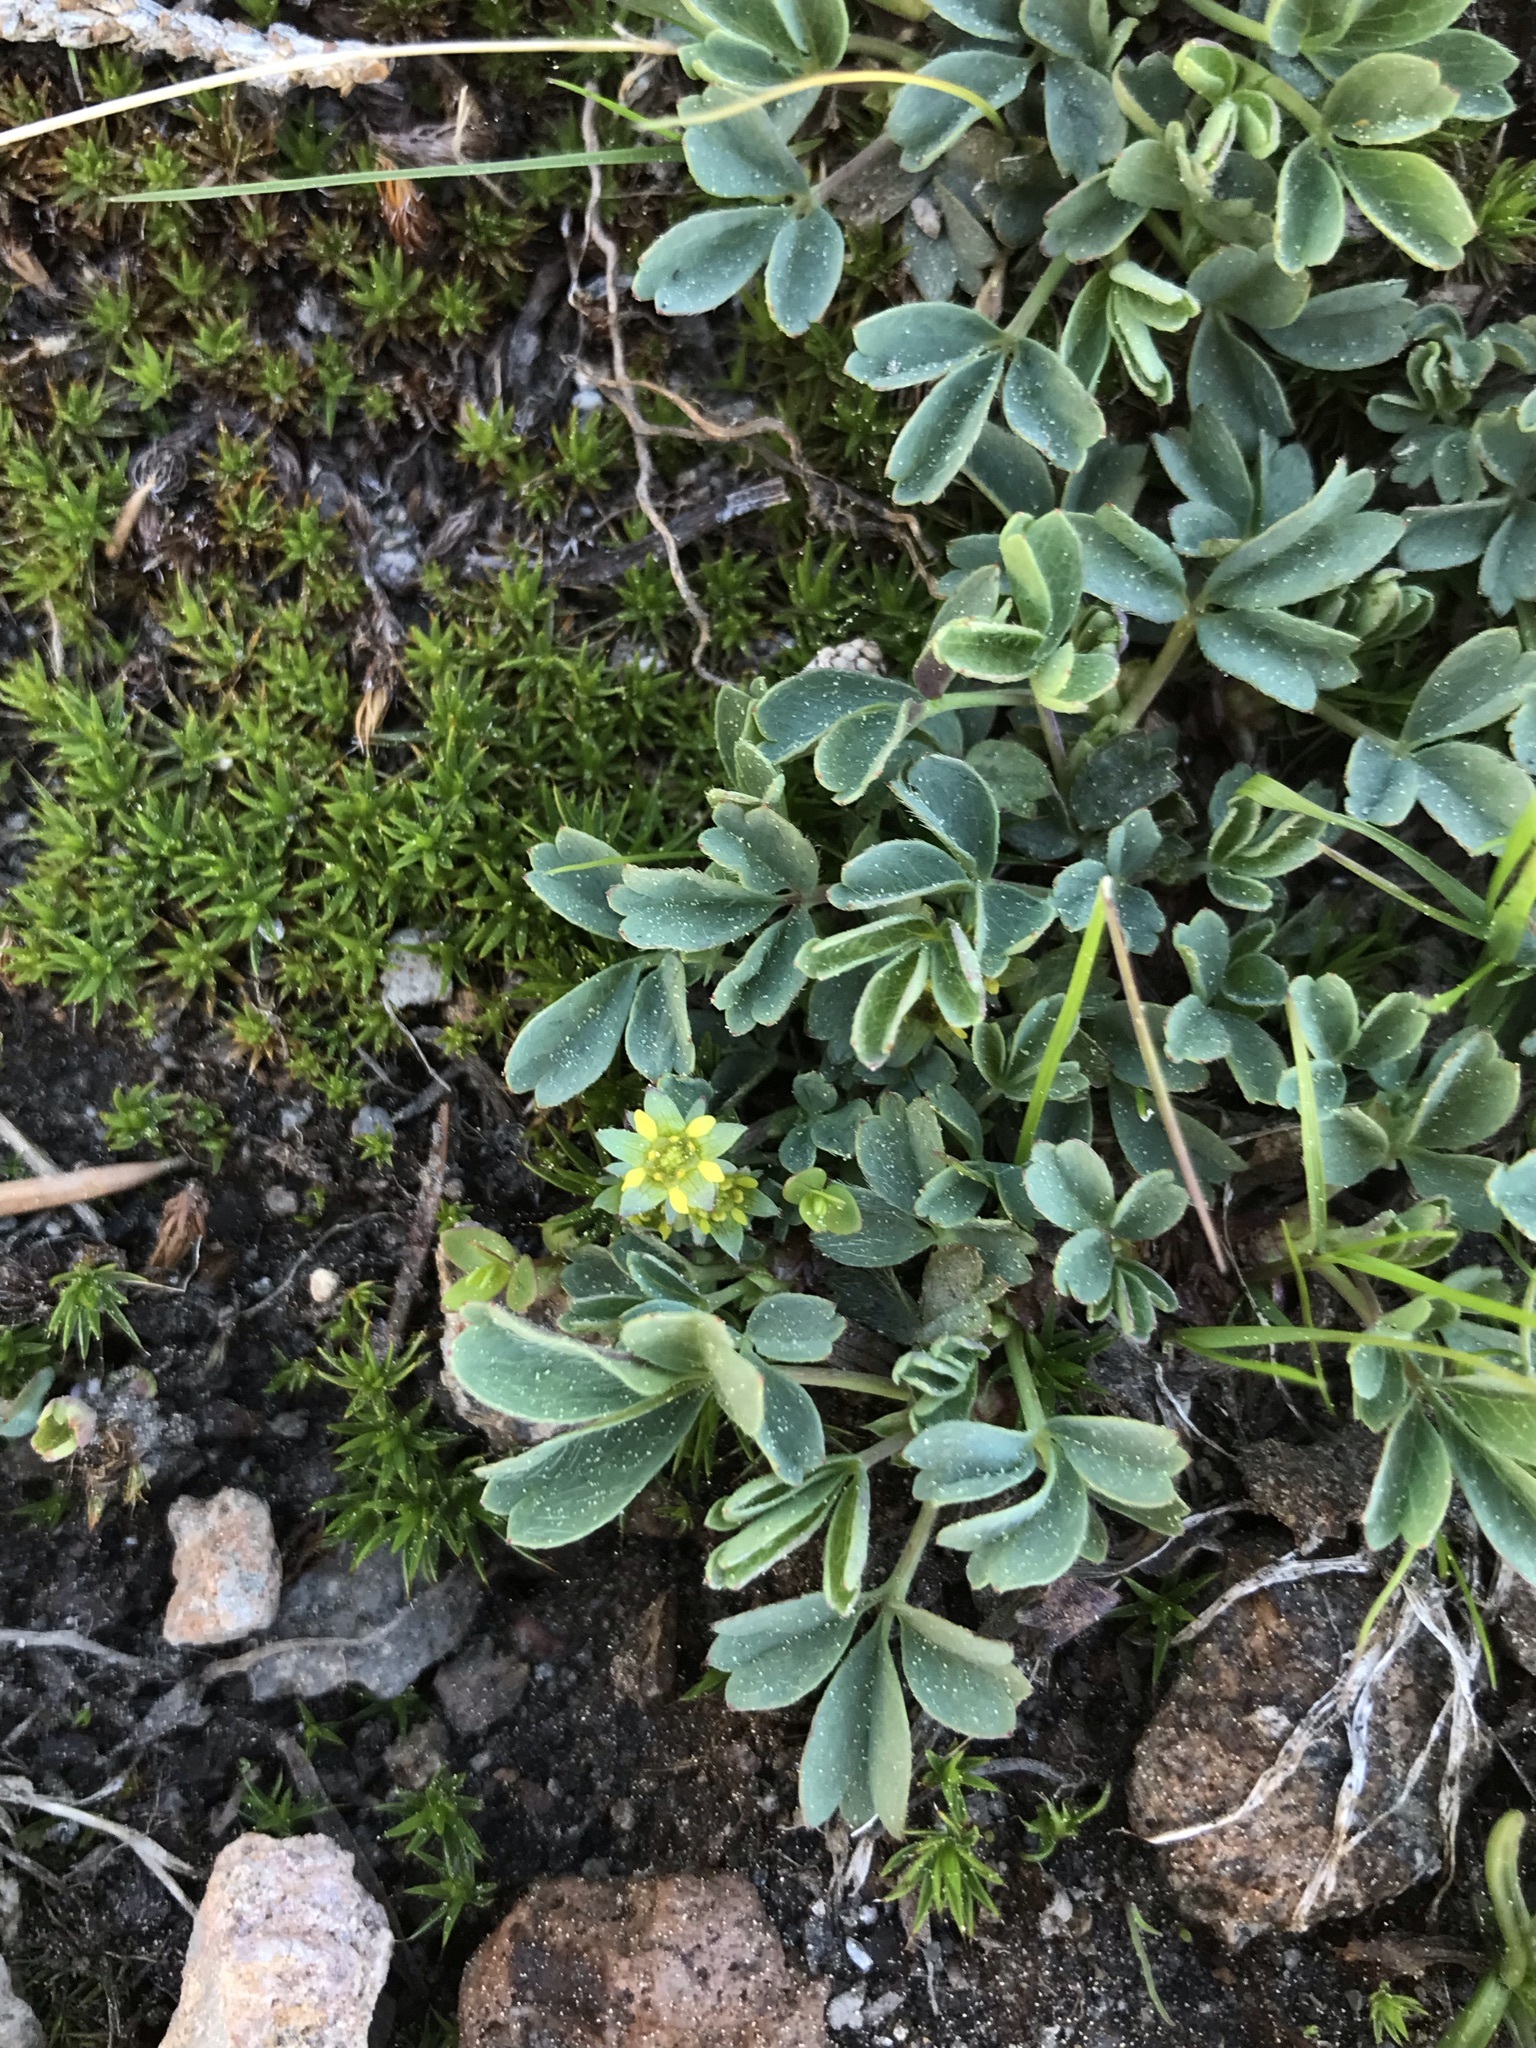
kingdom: Plantae
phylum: Tracheophyta
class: Magnoliopsida
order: Rosales
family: Rosaceae
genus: Sibbaldia
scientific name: Sibbaldia procumbens
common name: Creeping sibbaldia
